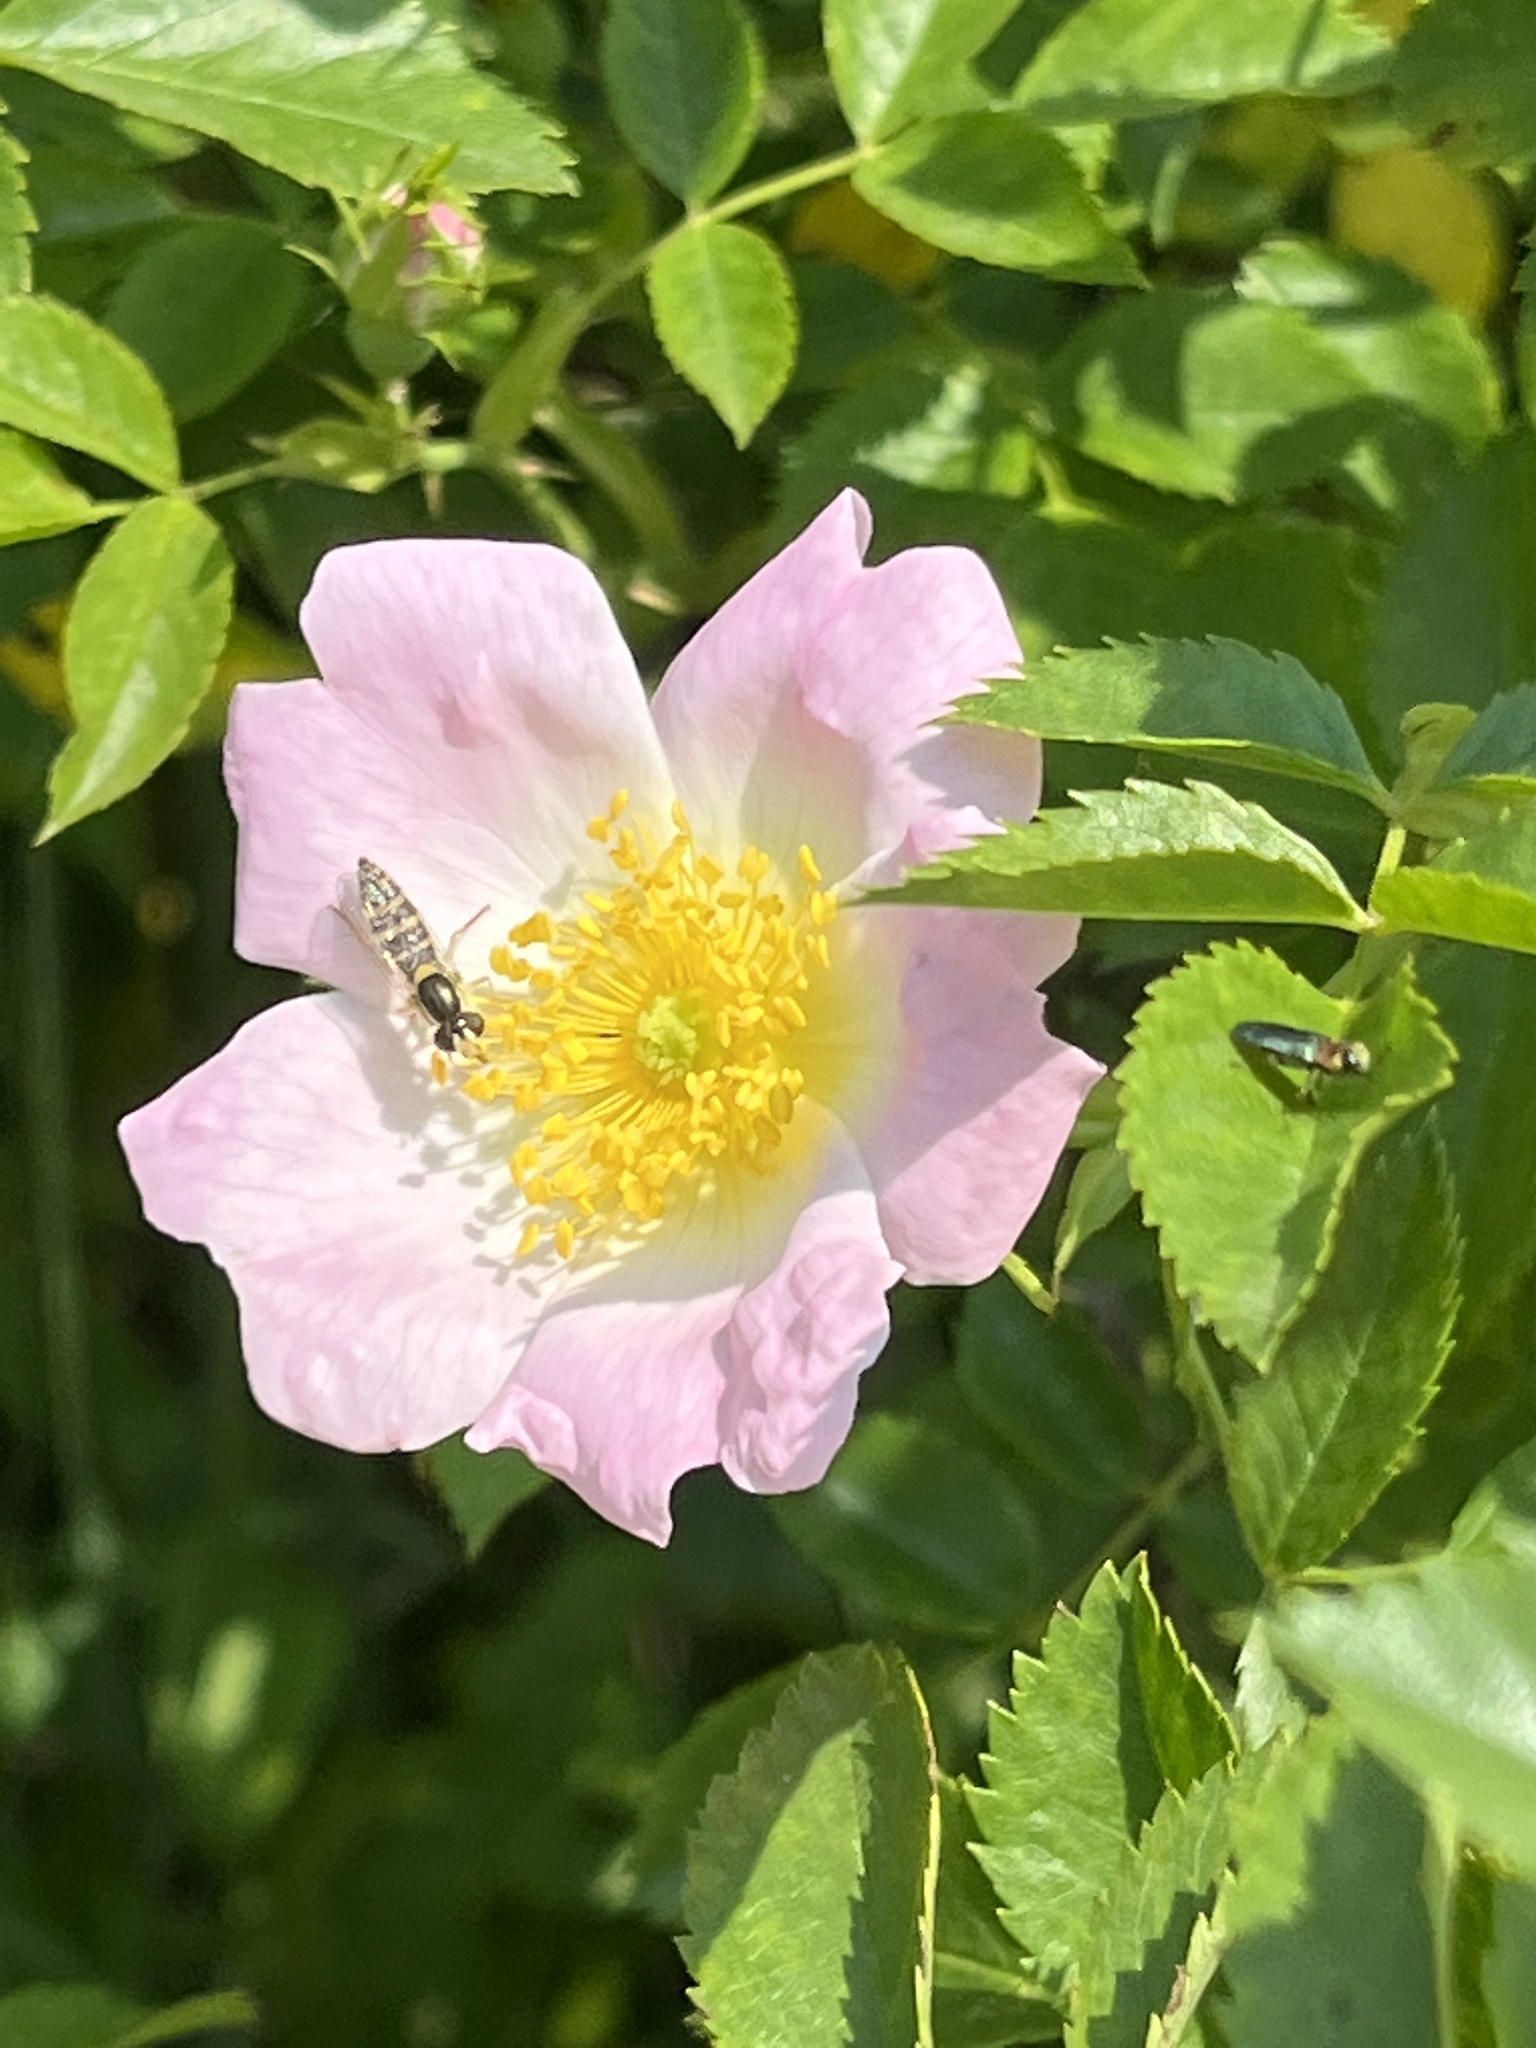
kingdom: Animalia
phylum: Arthropoda
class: Insecta
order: Diptera
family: Syrphidae
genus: Sphaerophoria
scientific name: Sphaerophoria
